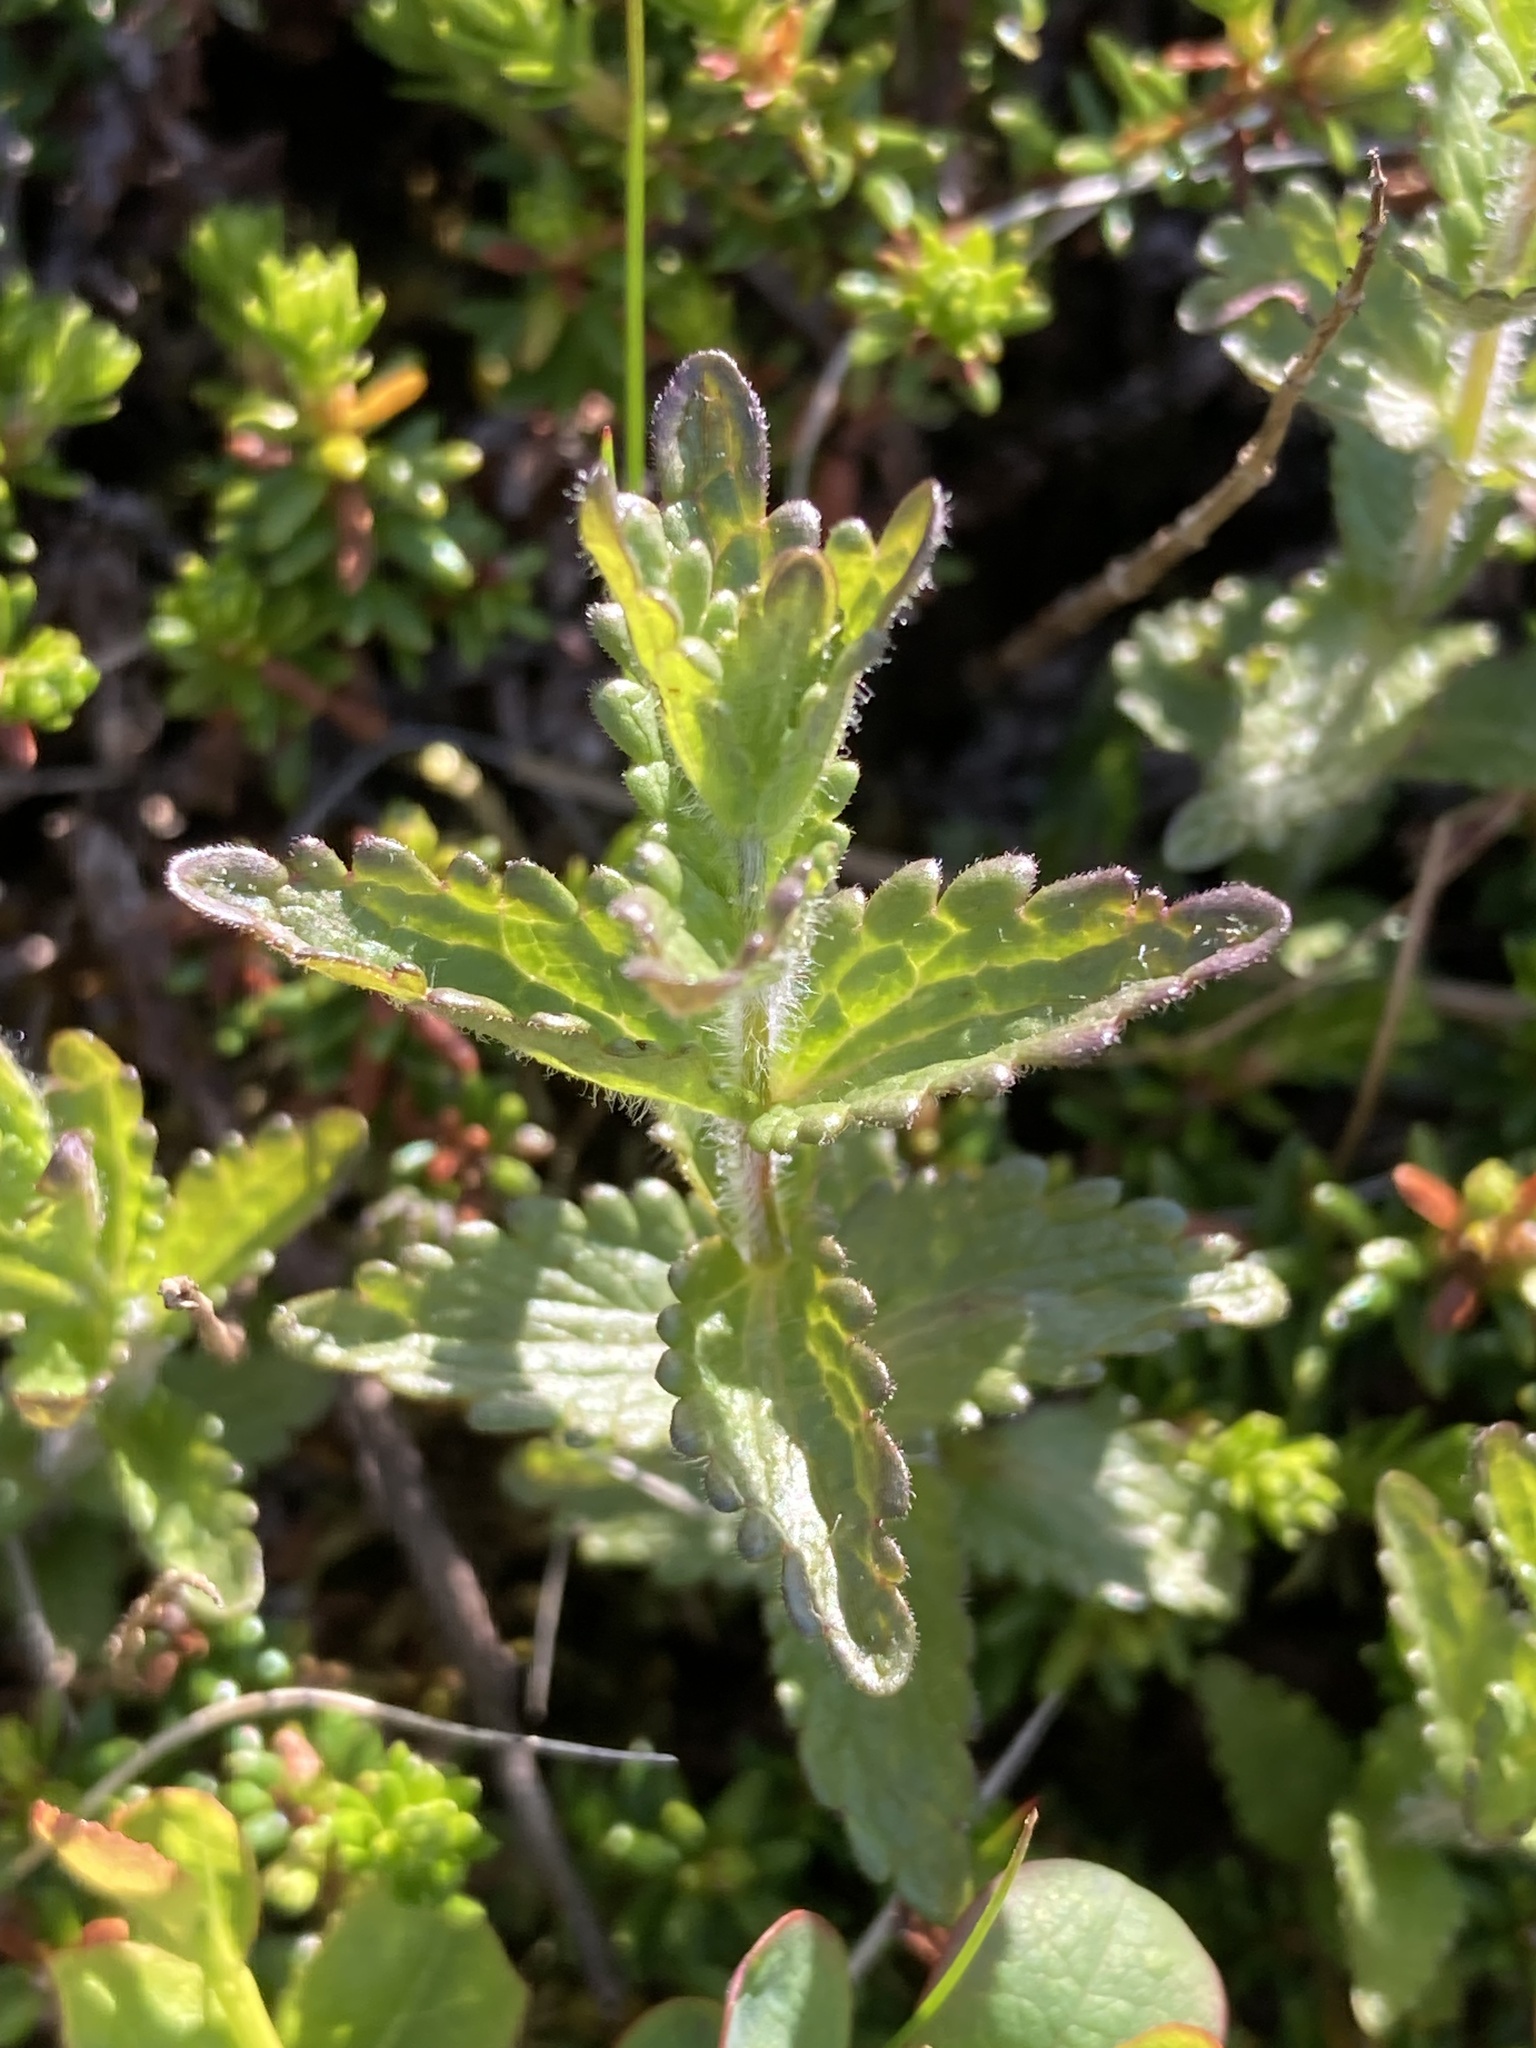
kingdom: Plantae
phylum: Tracheophyta
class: Magnoliopsida
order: Lamiales
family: Orobanchaceae
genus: Bartsia
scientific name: Bartsia alpina
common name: Alpine bartsia
